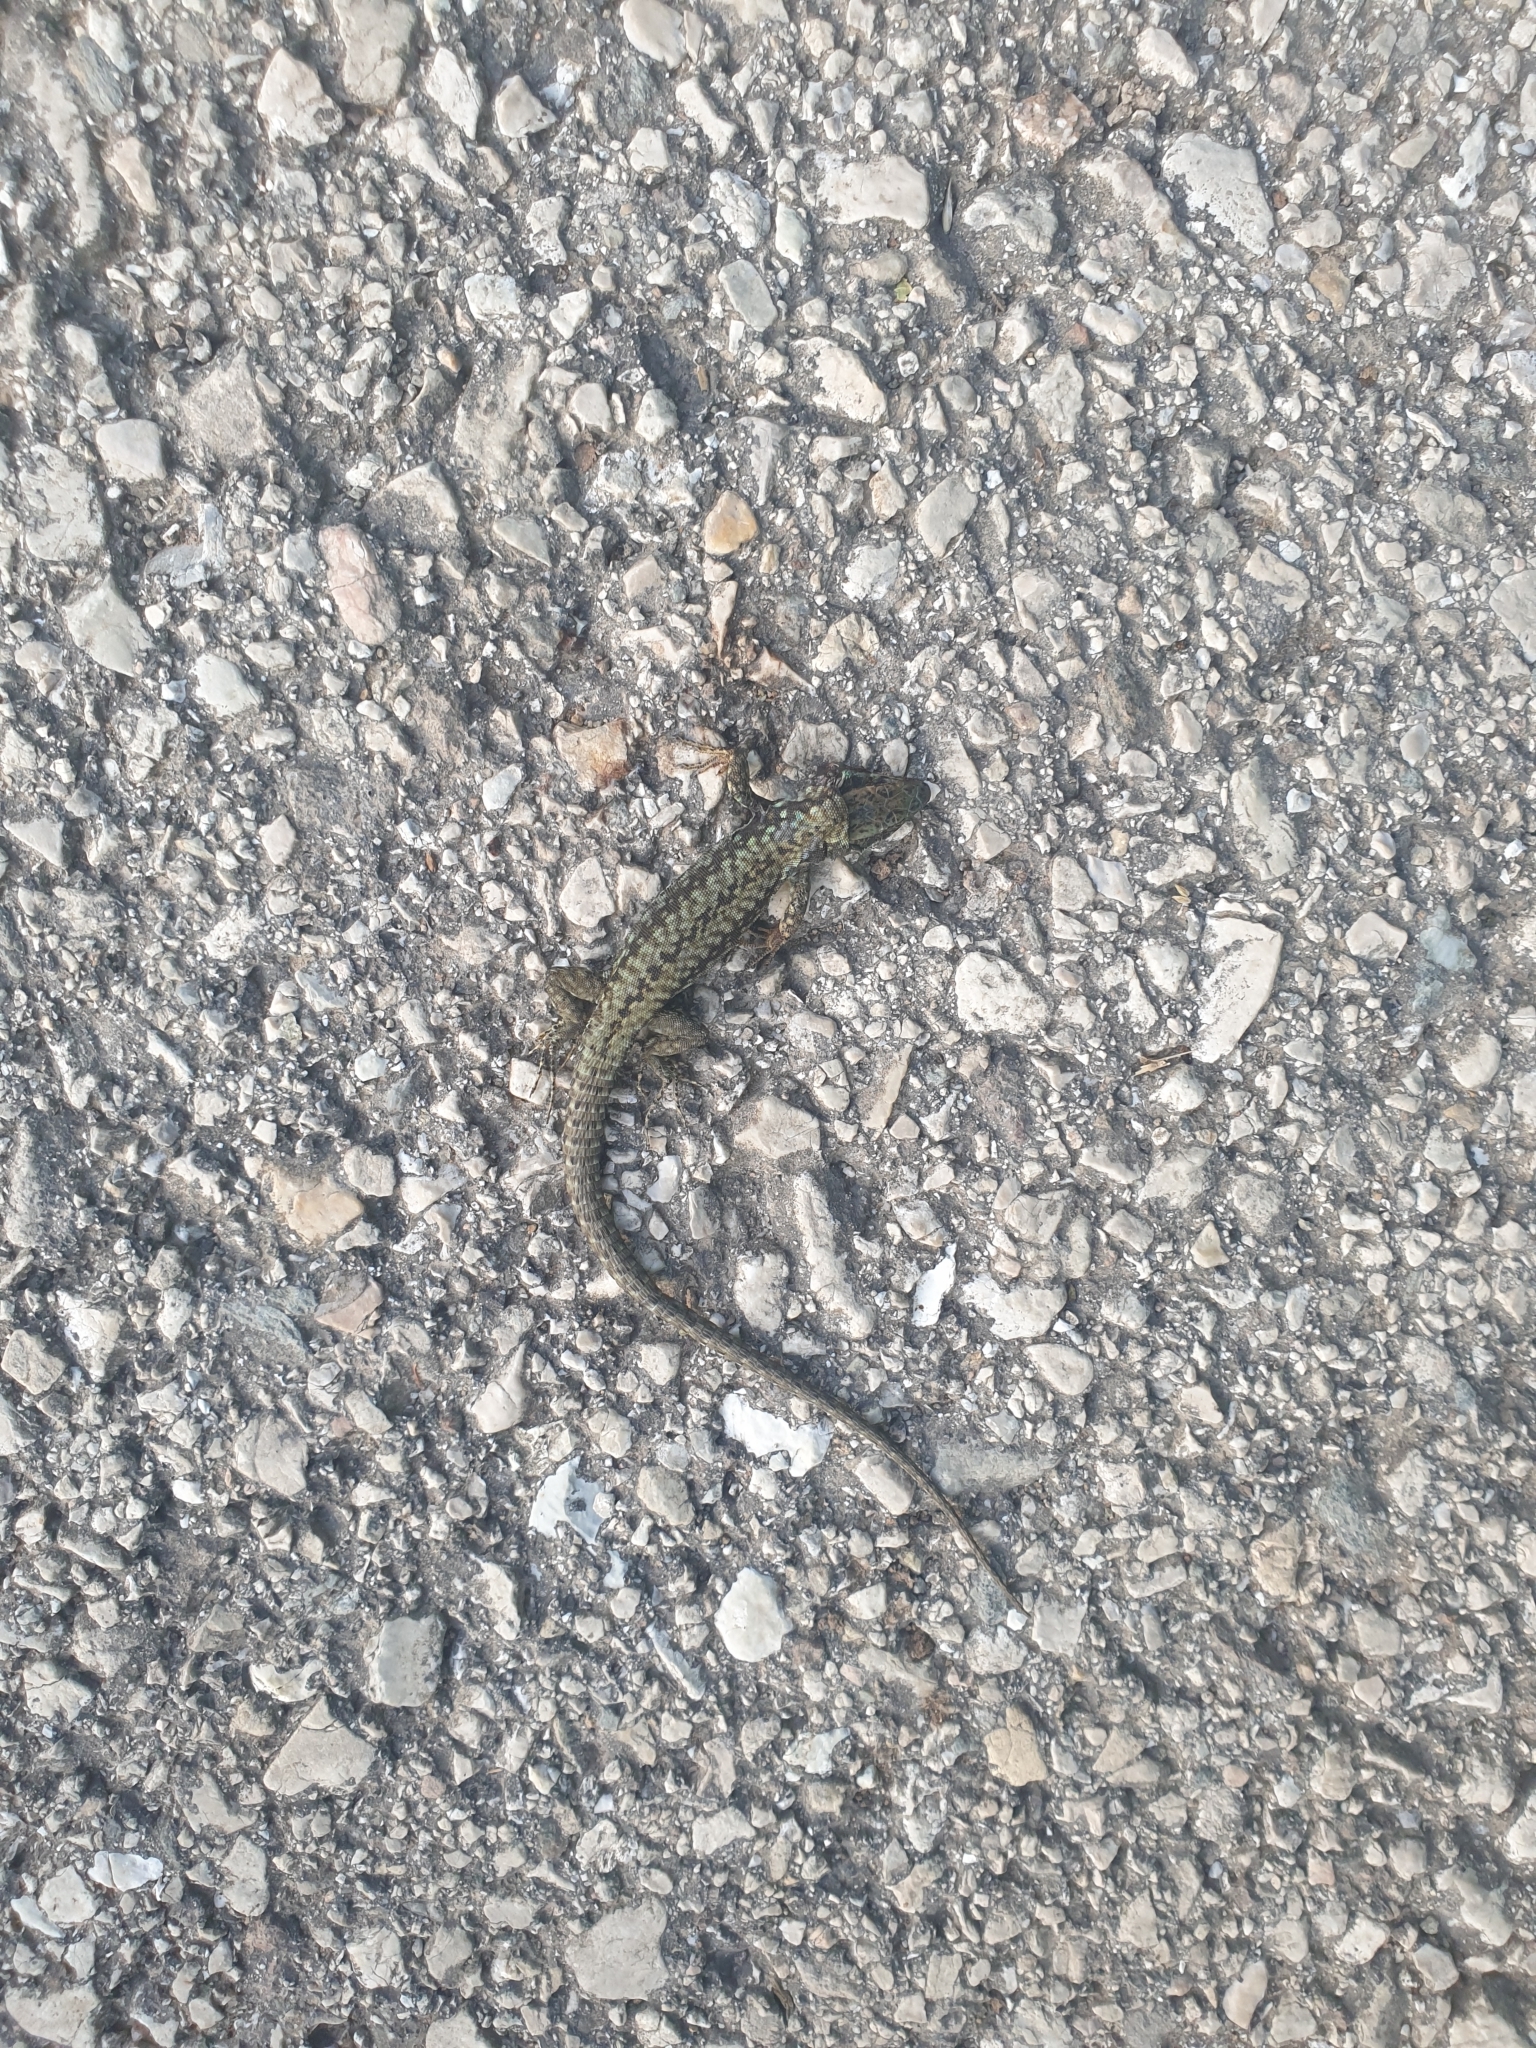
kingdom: Animalia
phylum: Chordata
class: Squamata
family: Lacertidae
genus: Podarcis
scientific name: Podarcis muralis
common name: Common wall lizard
